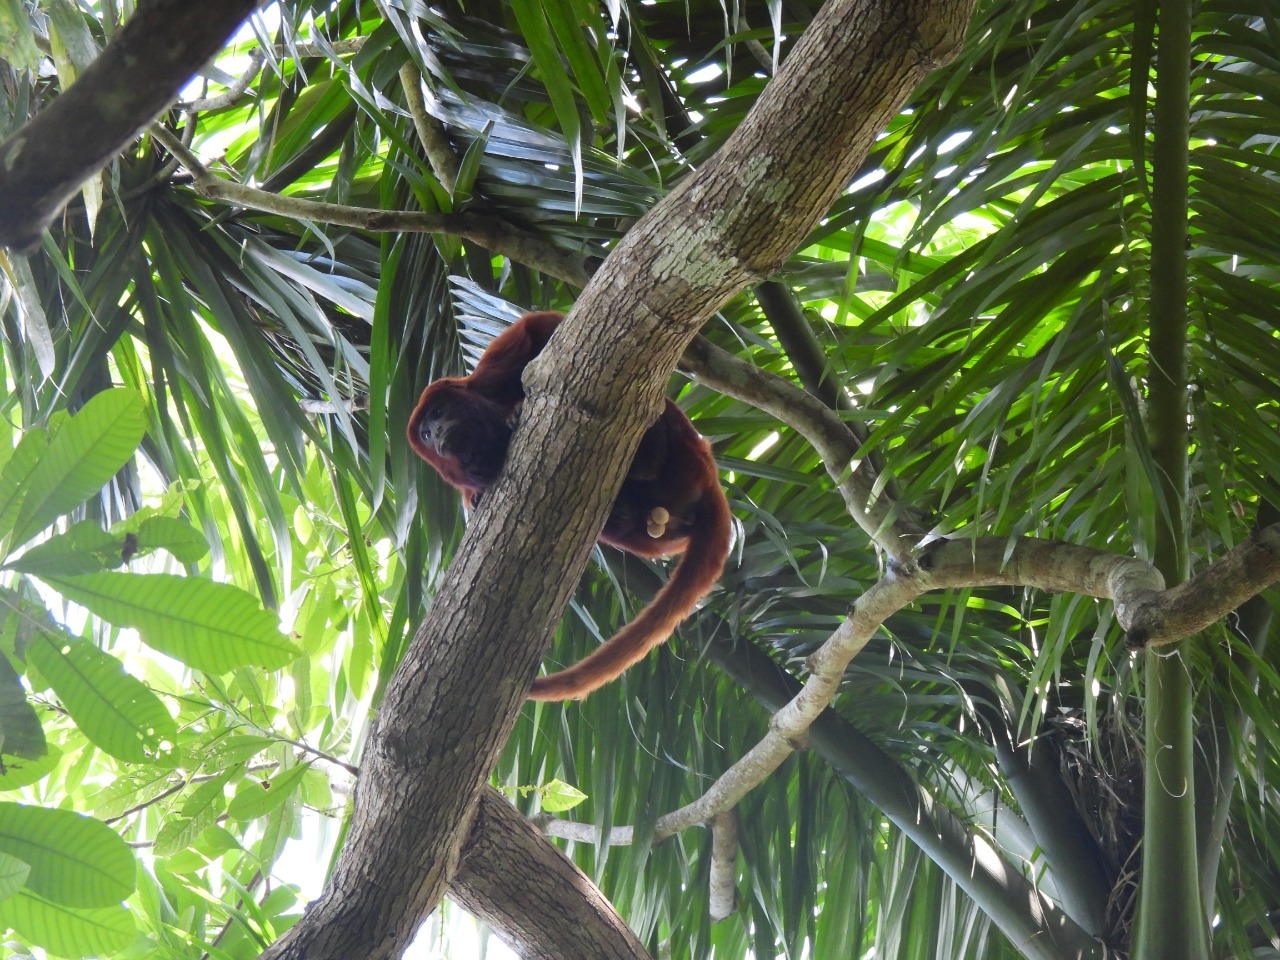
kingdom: Animalia
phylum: Chordata
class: Mammalia
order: Primates
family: Atelidae
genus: Alouatta
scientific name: Alouatta seniculus
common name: Venezuelan red howler
